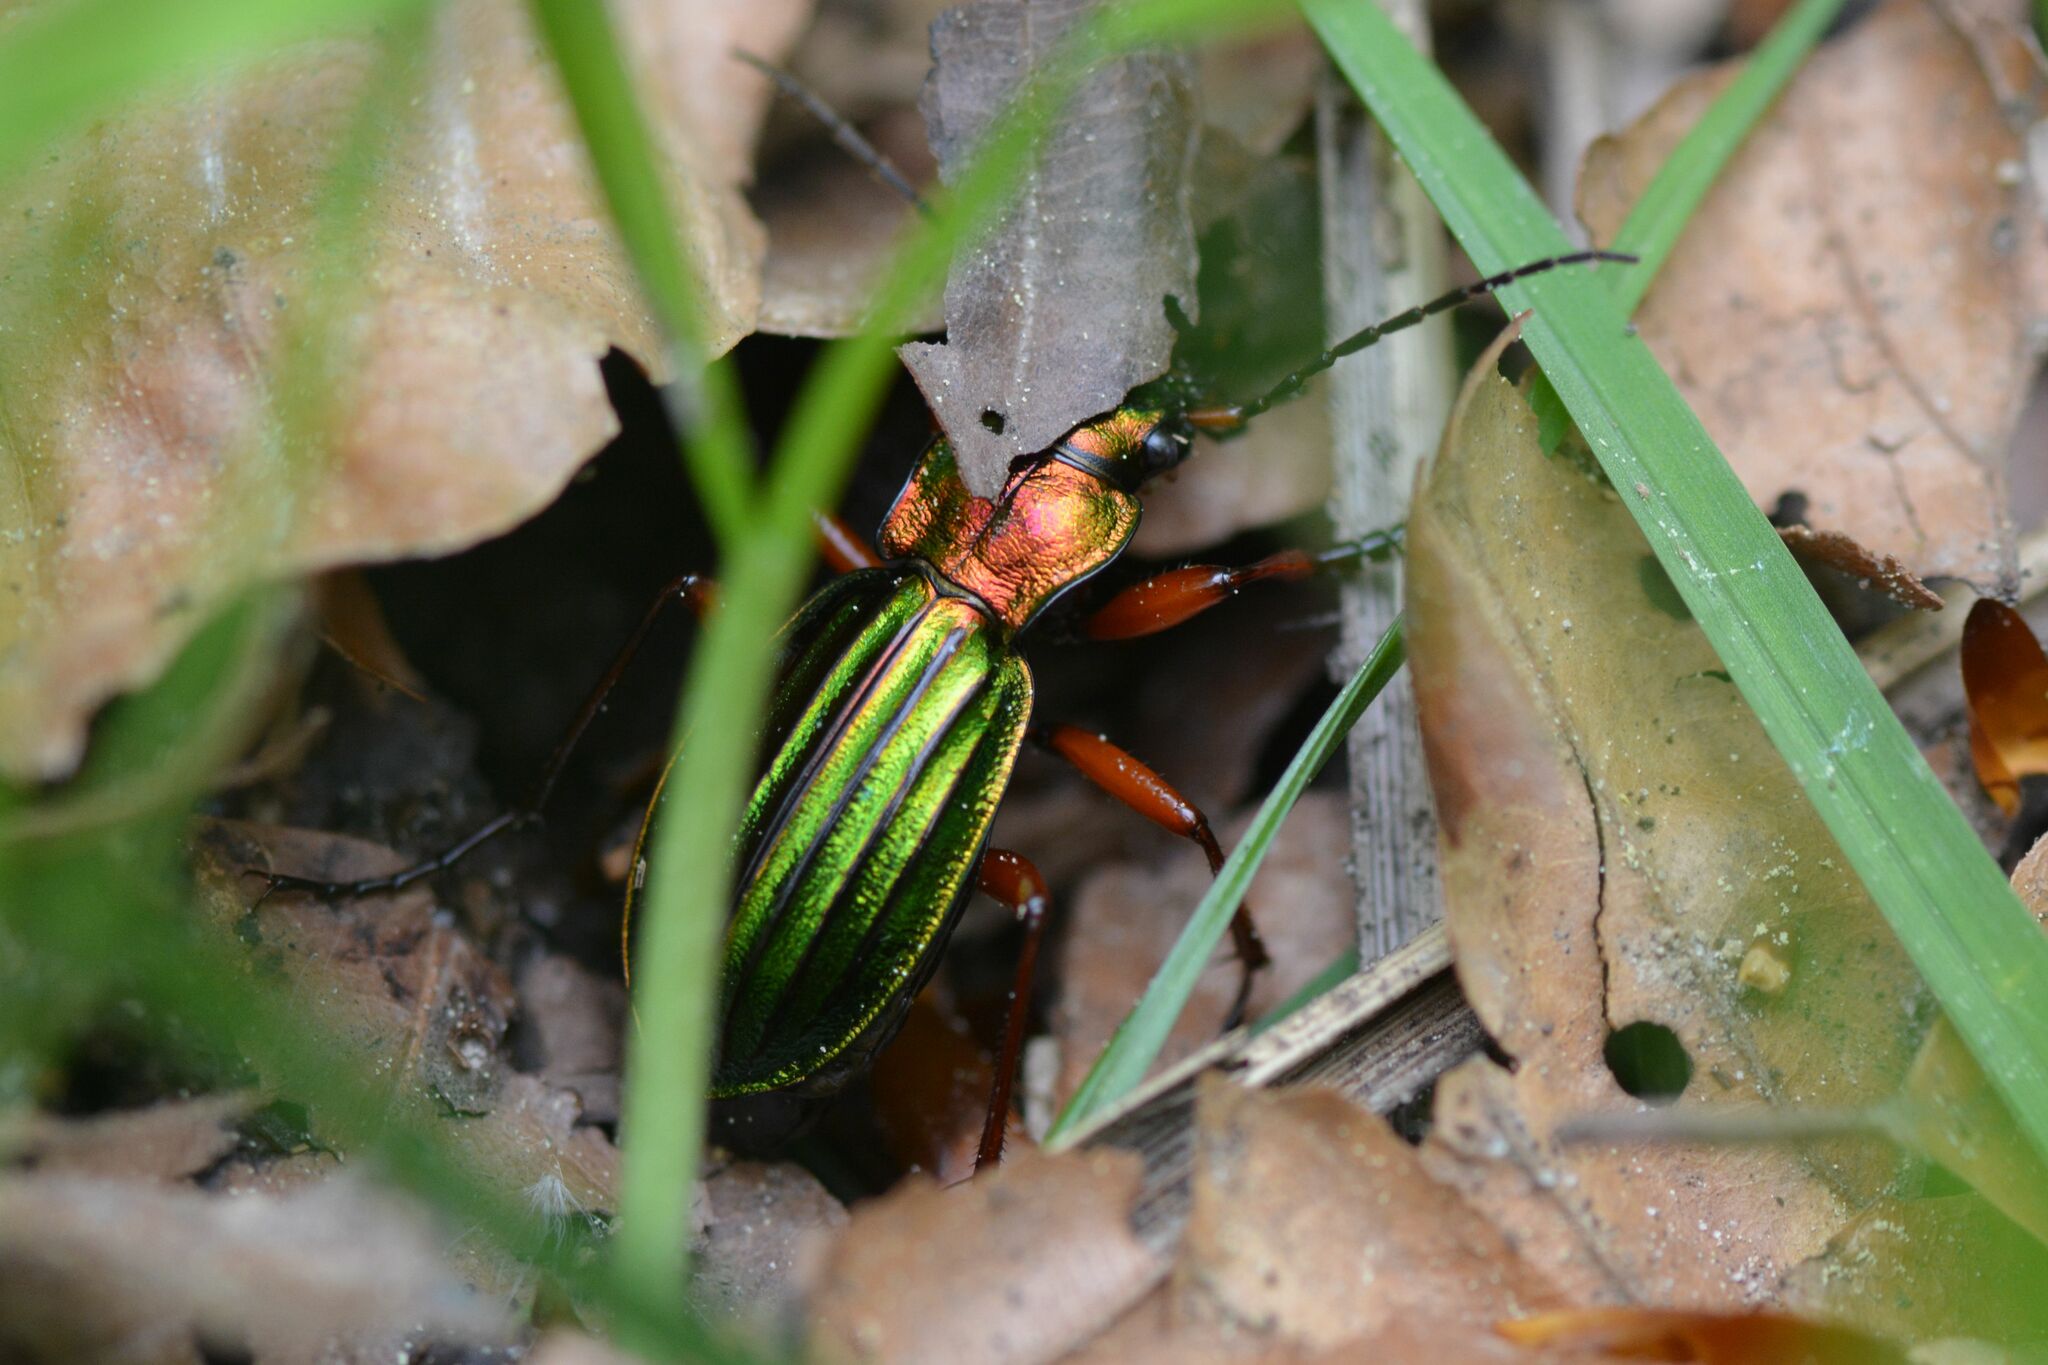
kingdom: Animalia
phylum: Arthropoda
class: Insecta
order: Coleoptera
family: Carabidae
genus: Carabus
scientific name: Carabus auronitens
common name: Carabus auronitens
